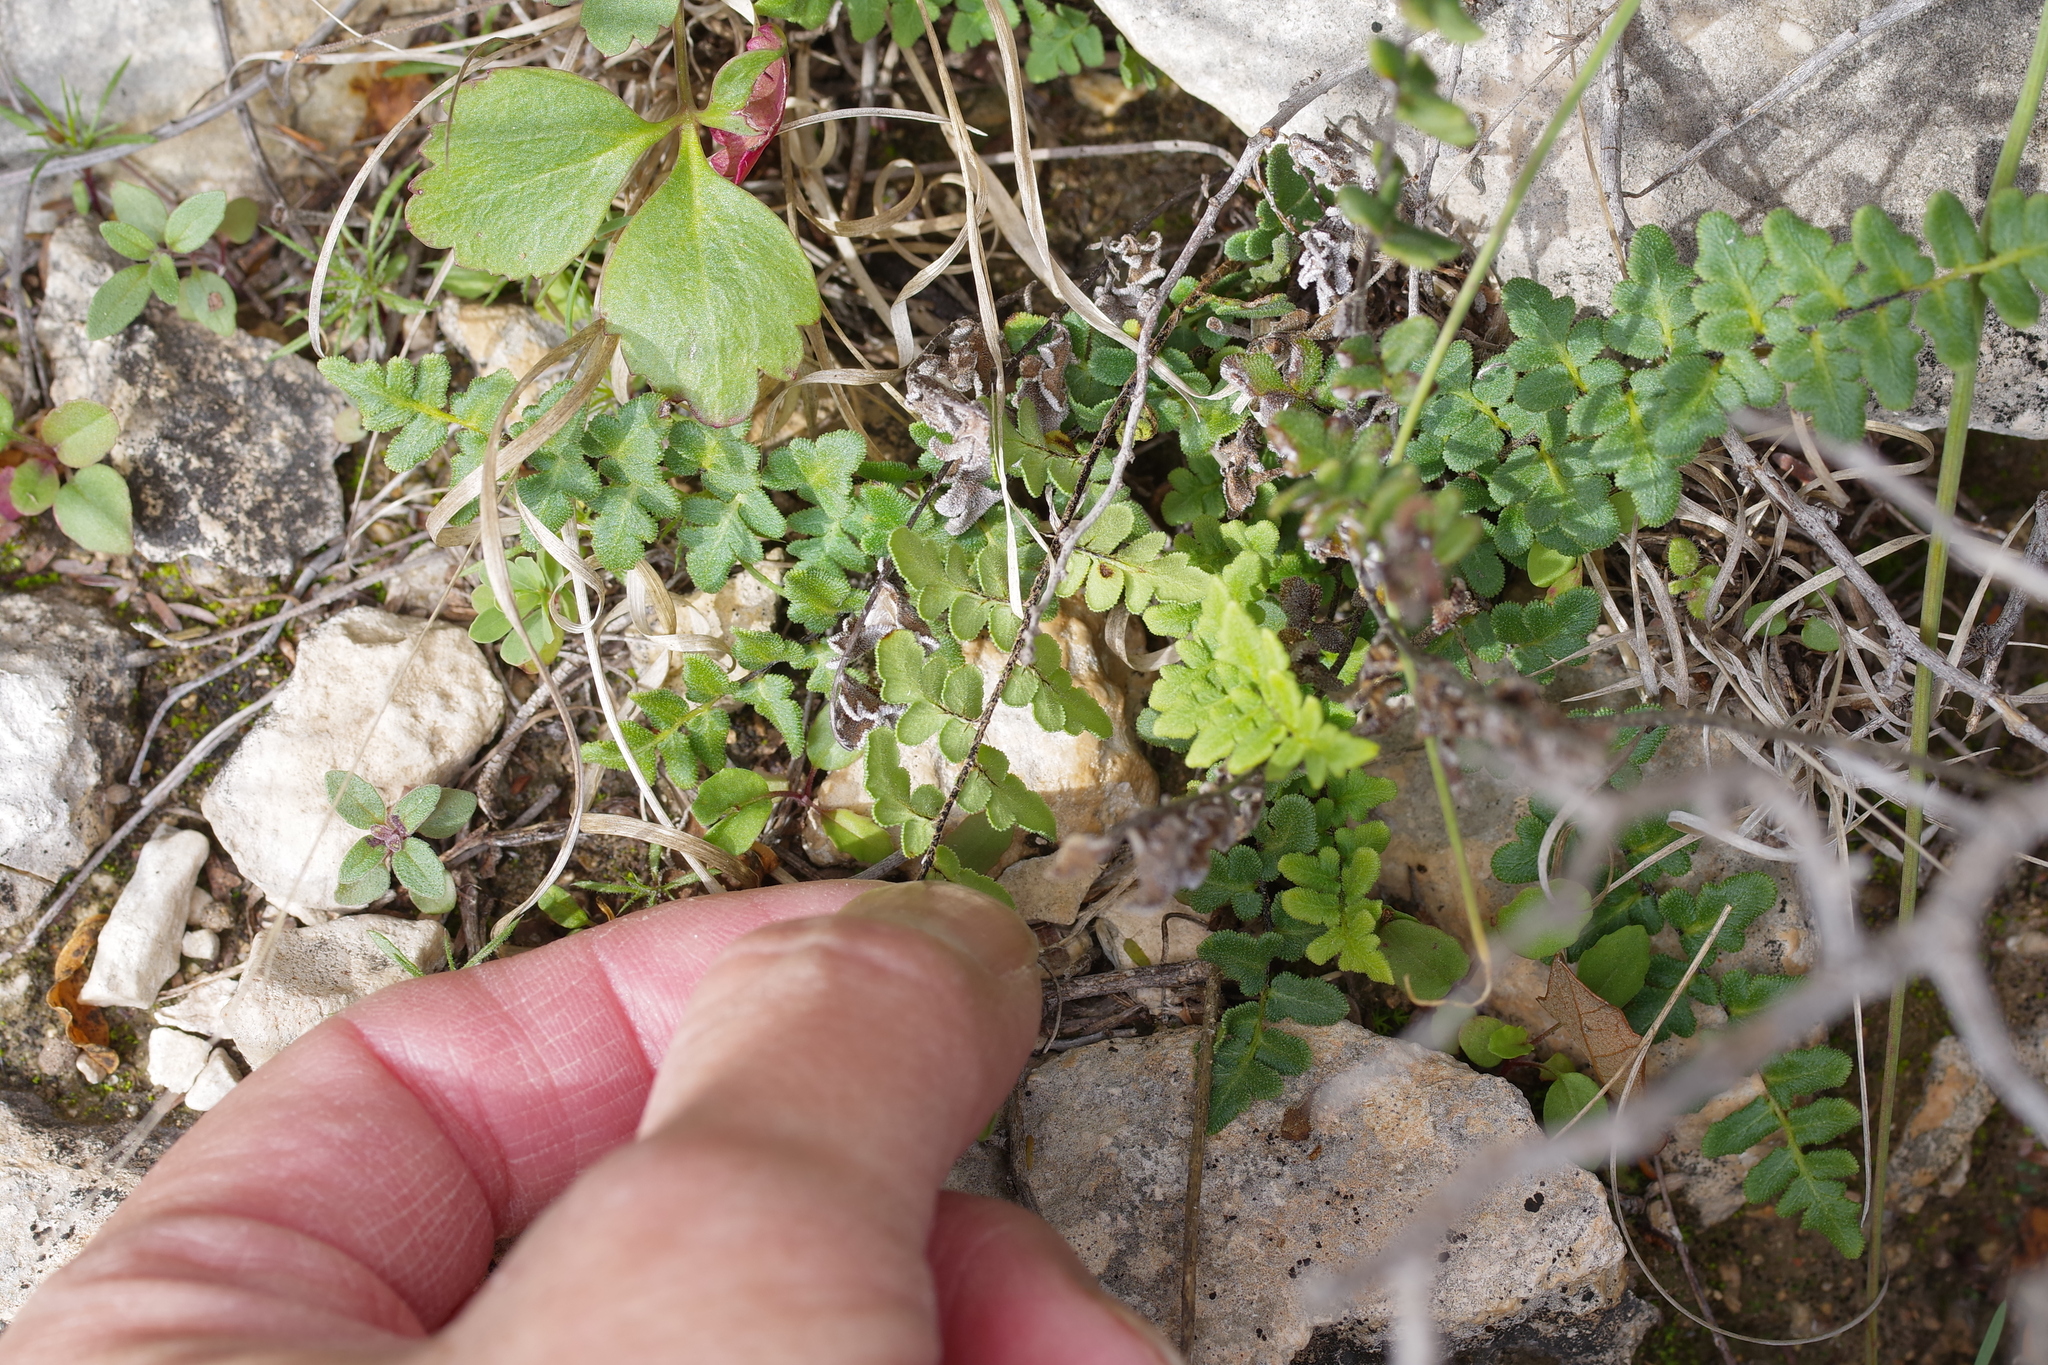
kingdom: Plantae
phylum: Tracheophyta
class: Polypodiopsida
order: Polypodiales
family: Pteridaceae
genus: Myriopteris
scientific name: Myriopteris scabra
